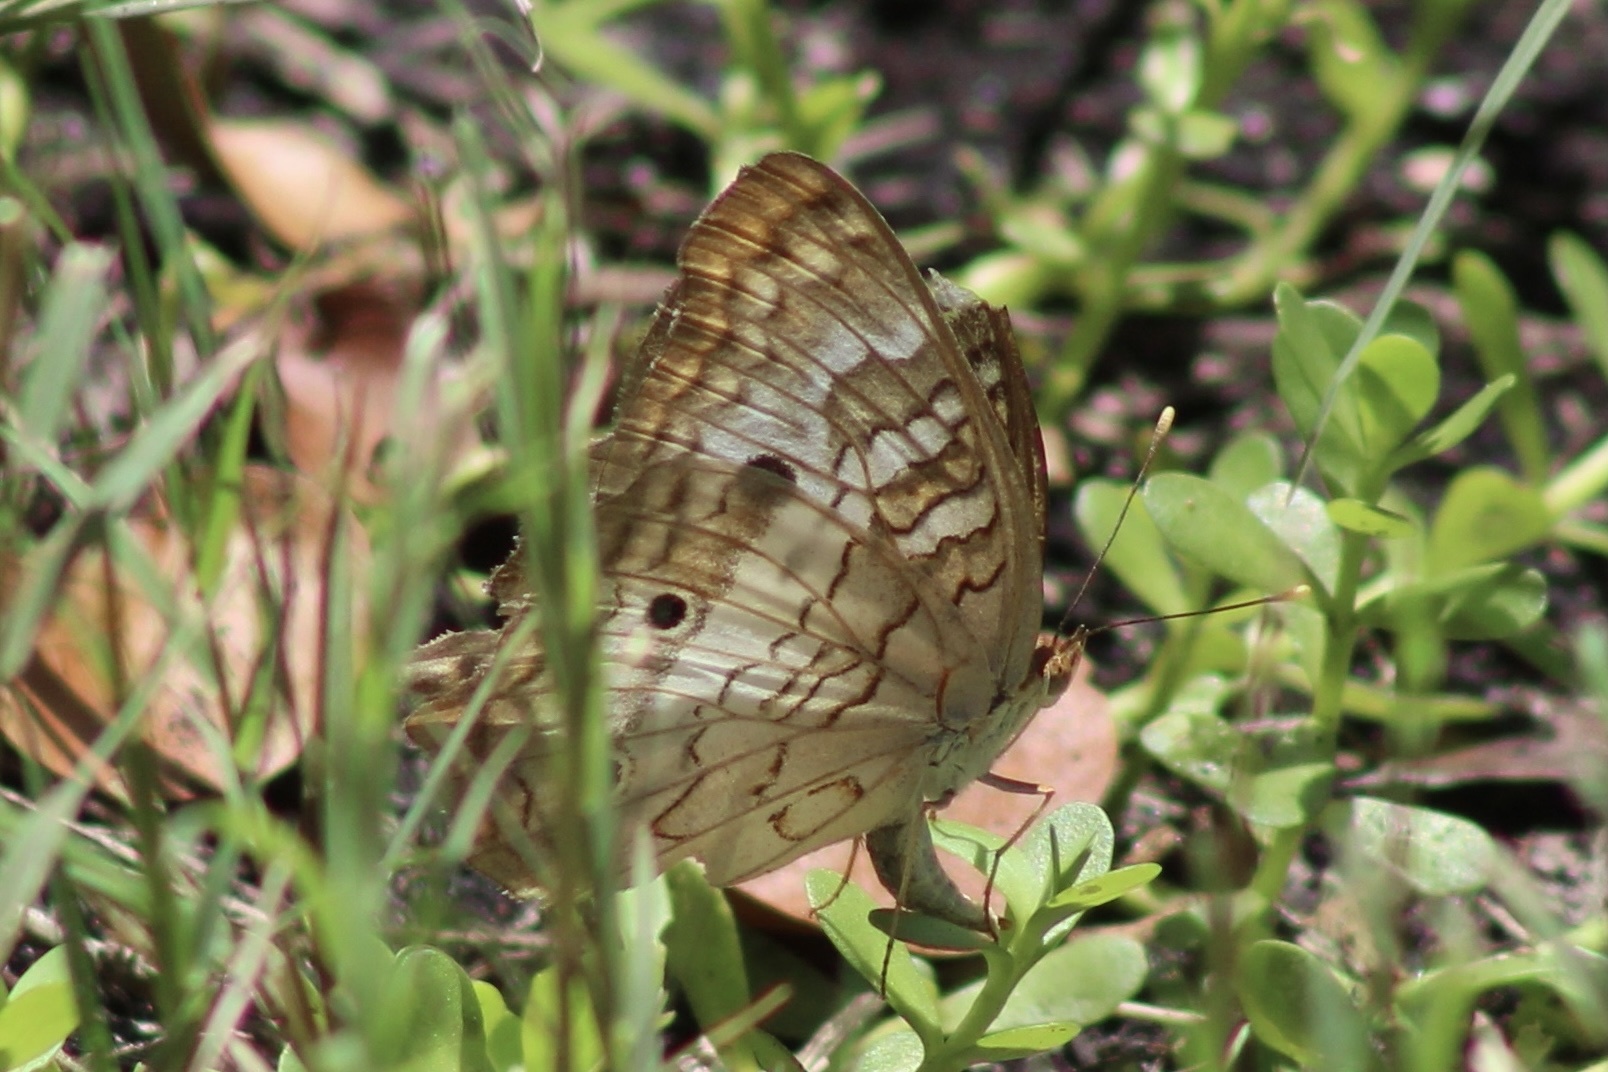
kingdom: Animalia
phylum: Arthropoda
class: Insecta
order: Lepidoptera
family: Nymphalidae
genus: Anartia
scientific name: Anartia jatrophae
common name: White peacock
